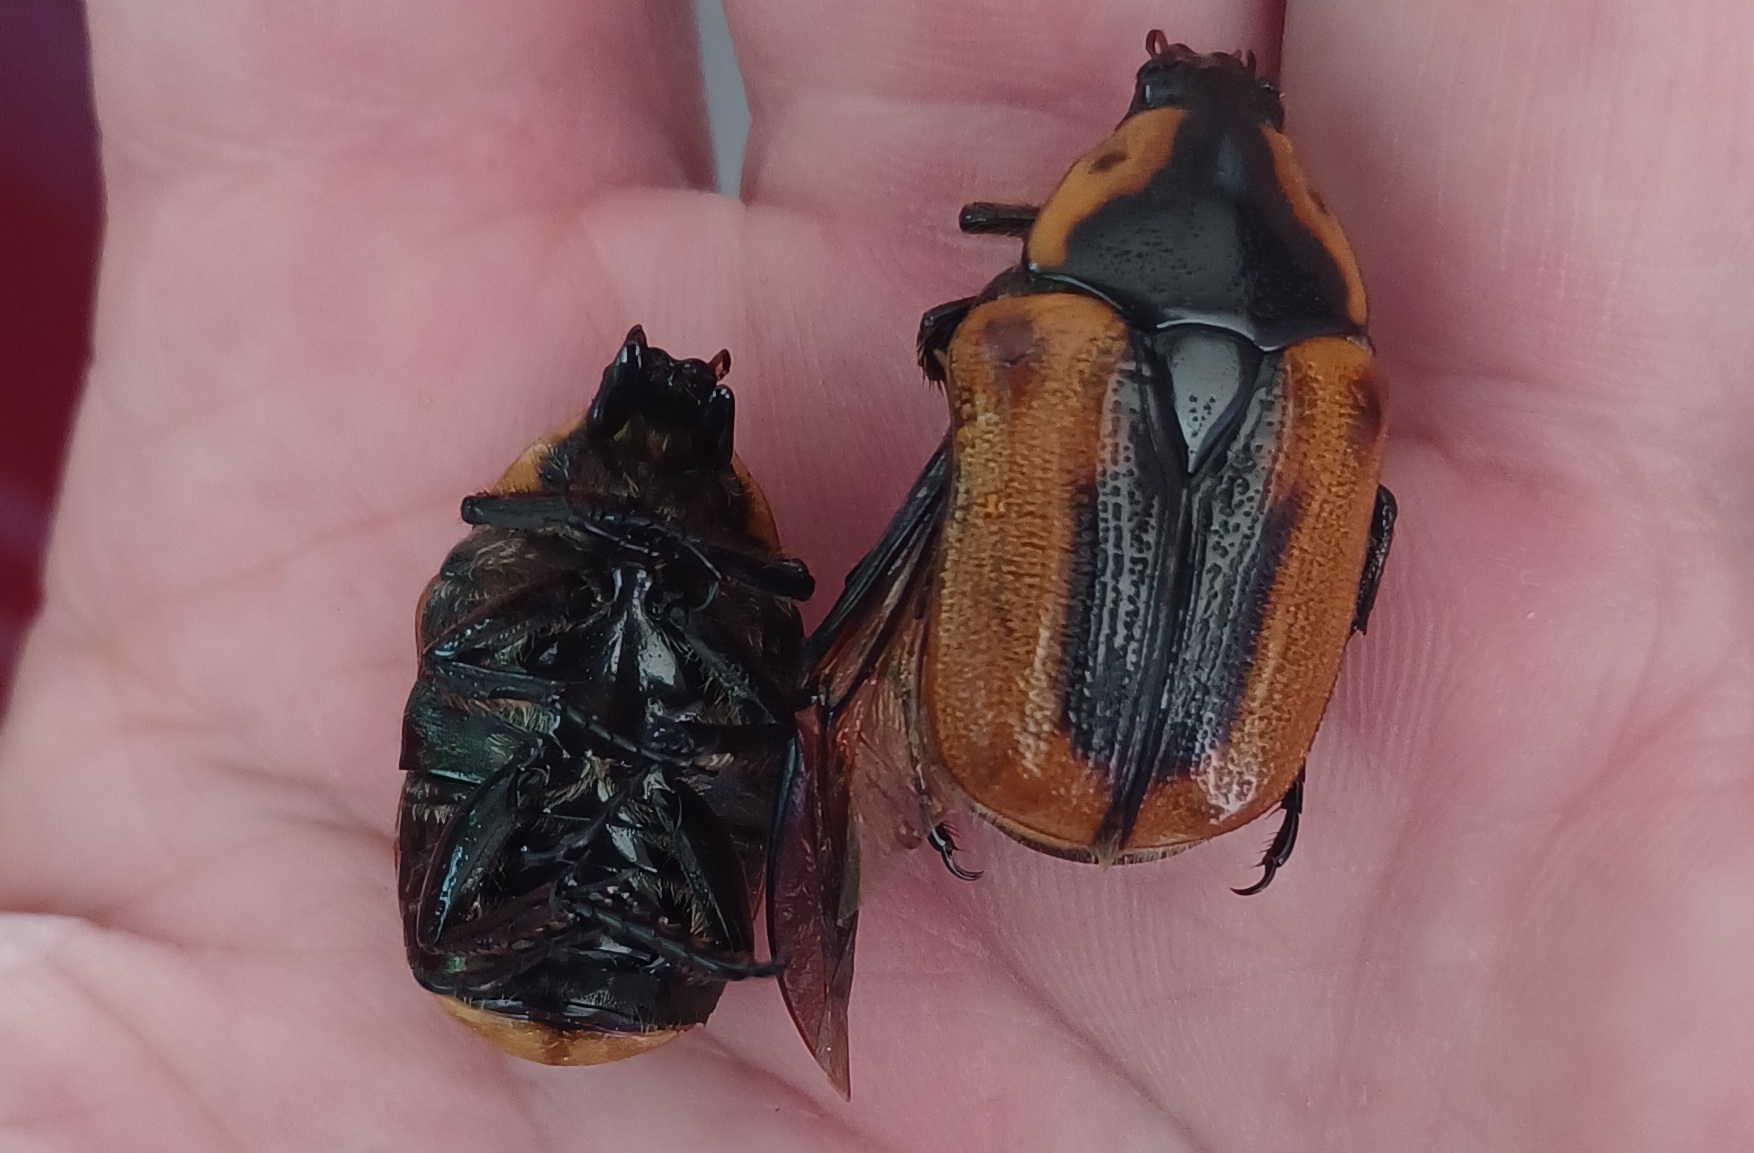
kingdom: Animalia
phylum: Arthropoda
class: Insecta
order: Coleoptera
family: Scarabaeidae
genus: Chondropyga
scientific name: Chondropyga dorsalis
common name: Cowboy beetle
